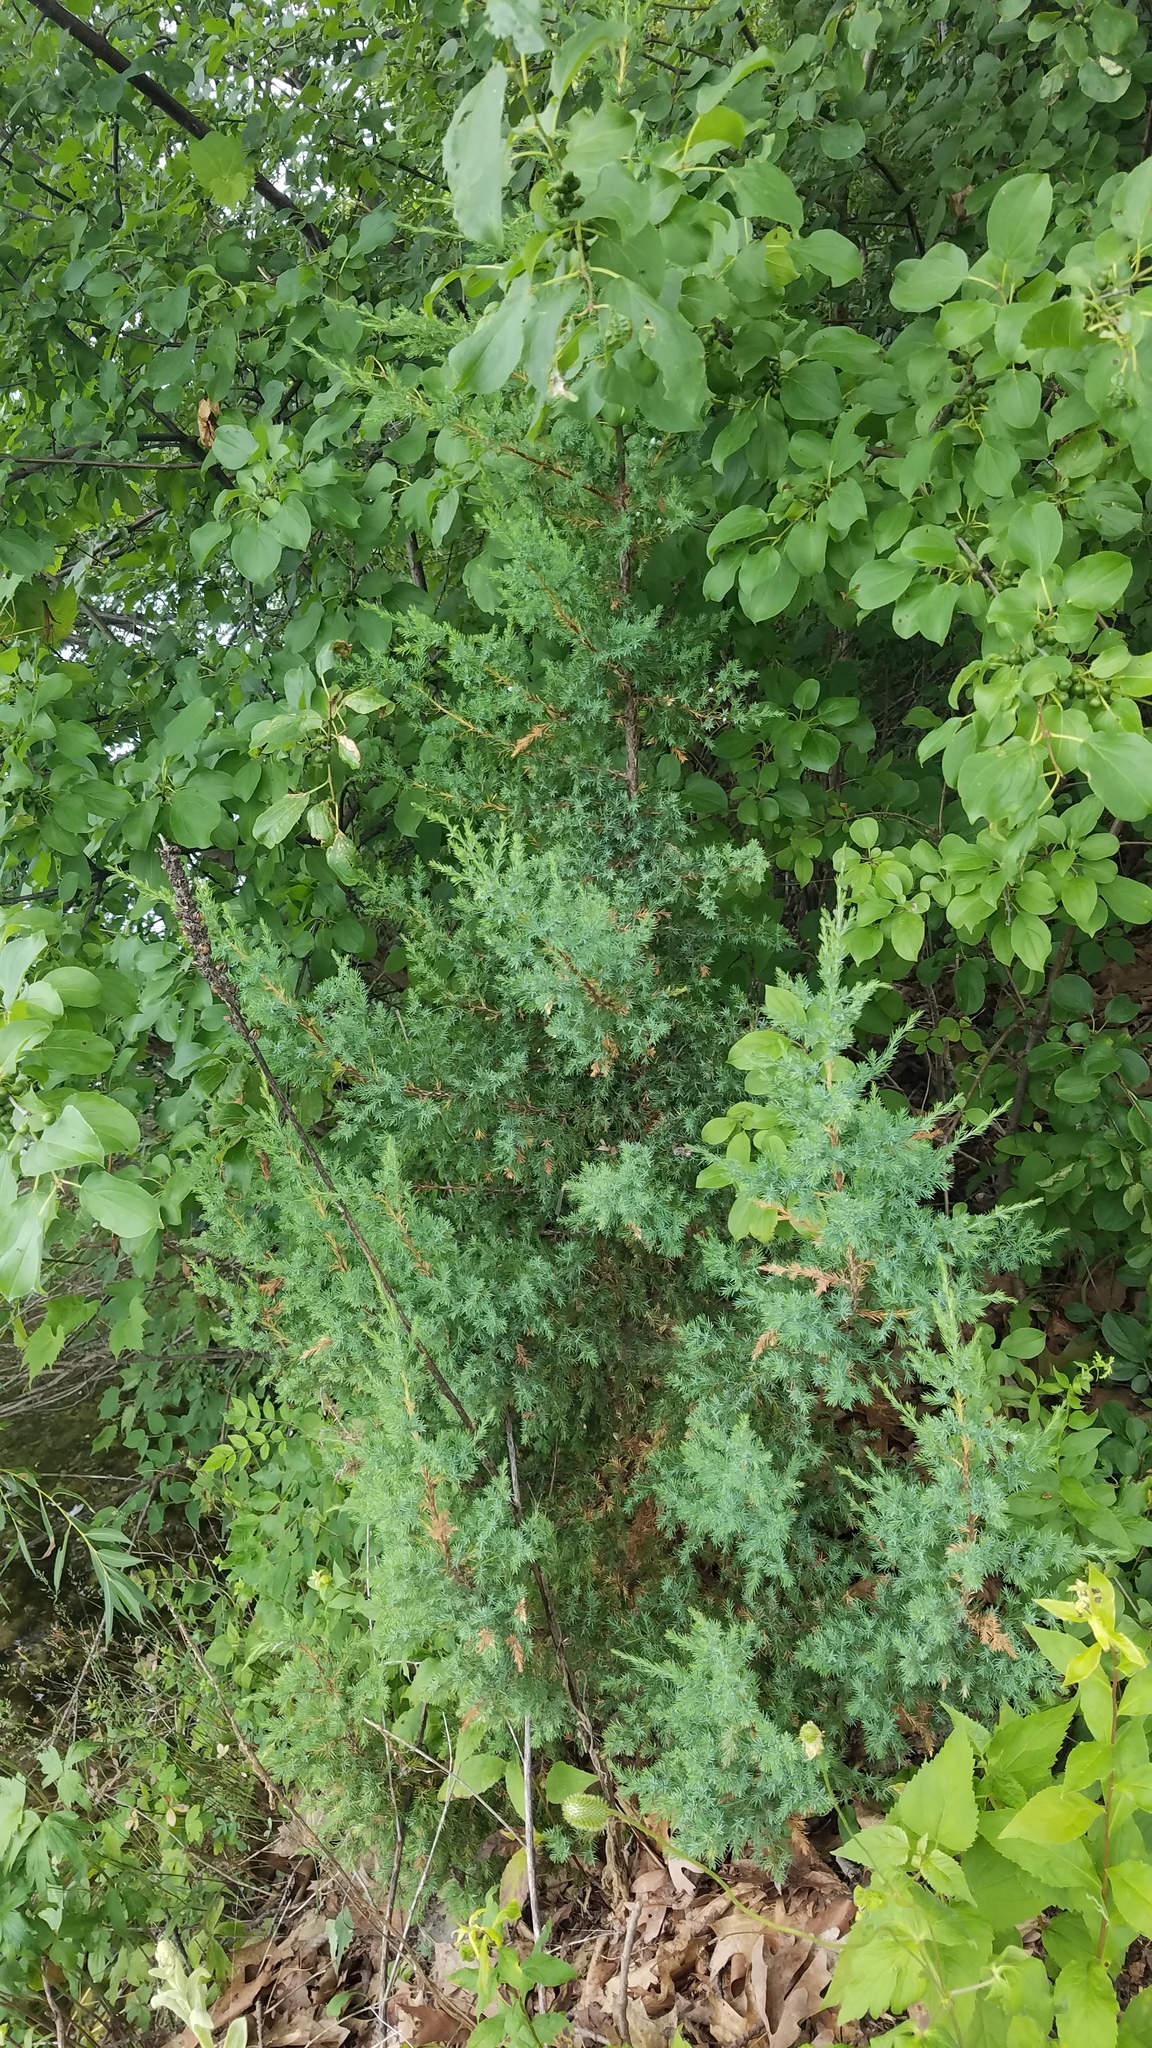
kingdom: Plantae
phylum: Tracheophyta
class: Pinopsida
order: Pinales
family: Cupressaceae
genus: Juniperus
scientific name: Juniperus virginiana
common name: Red juniper
